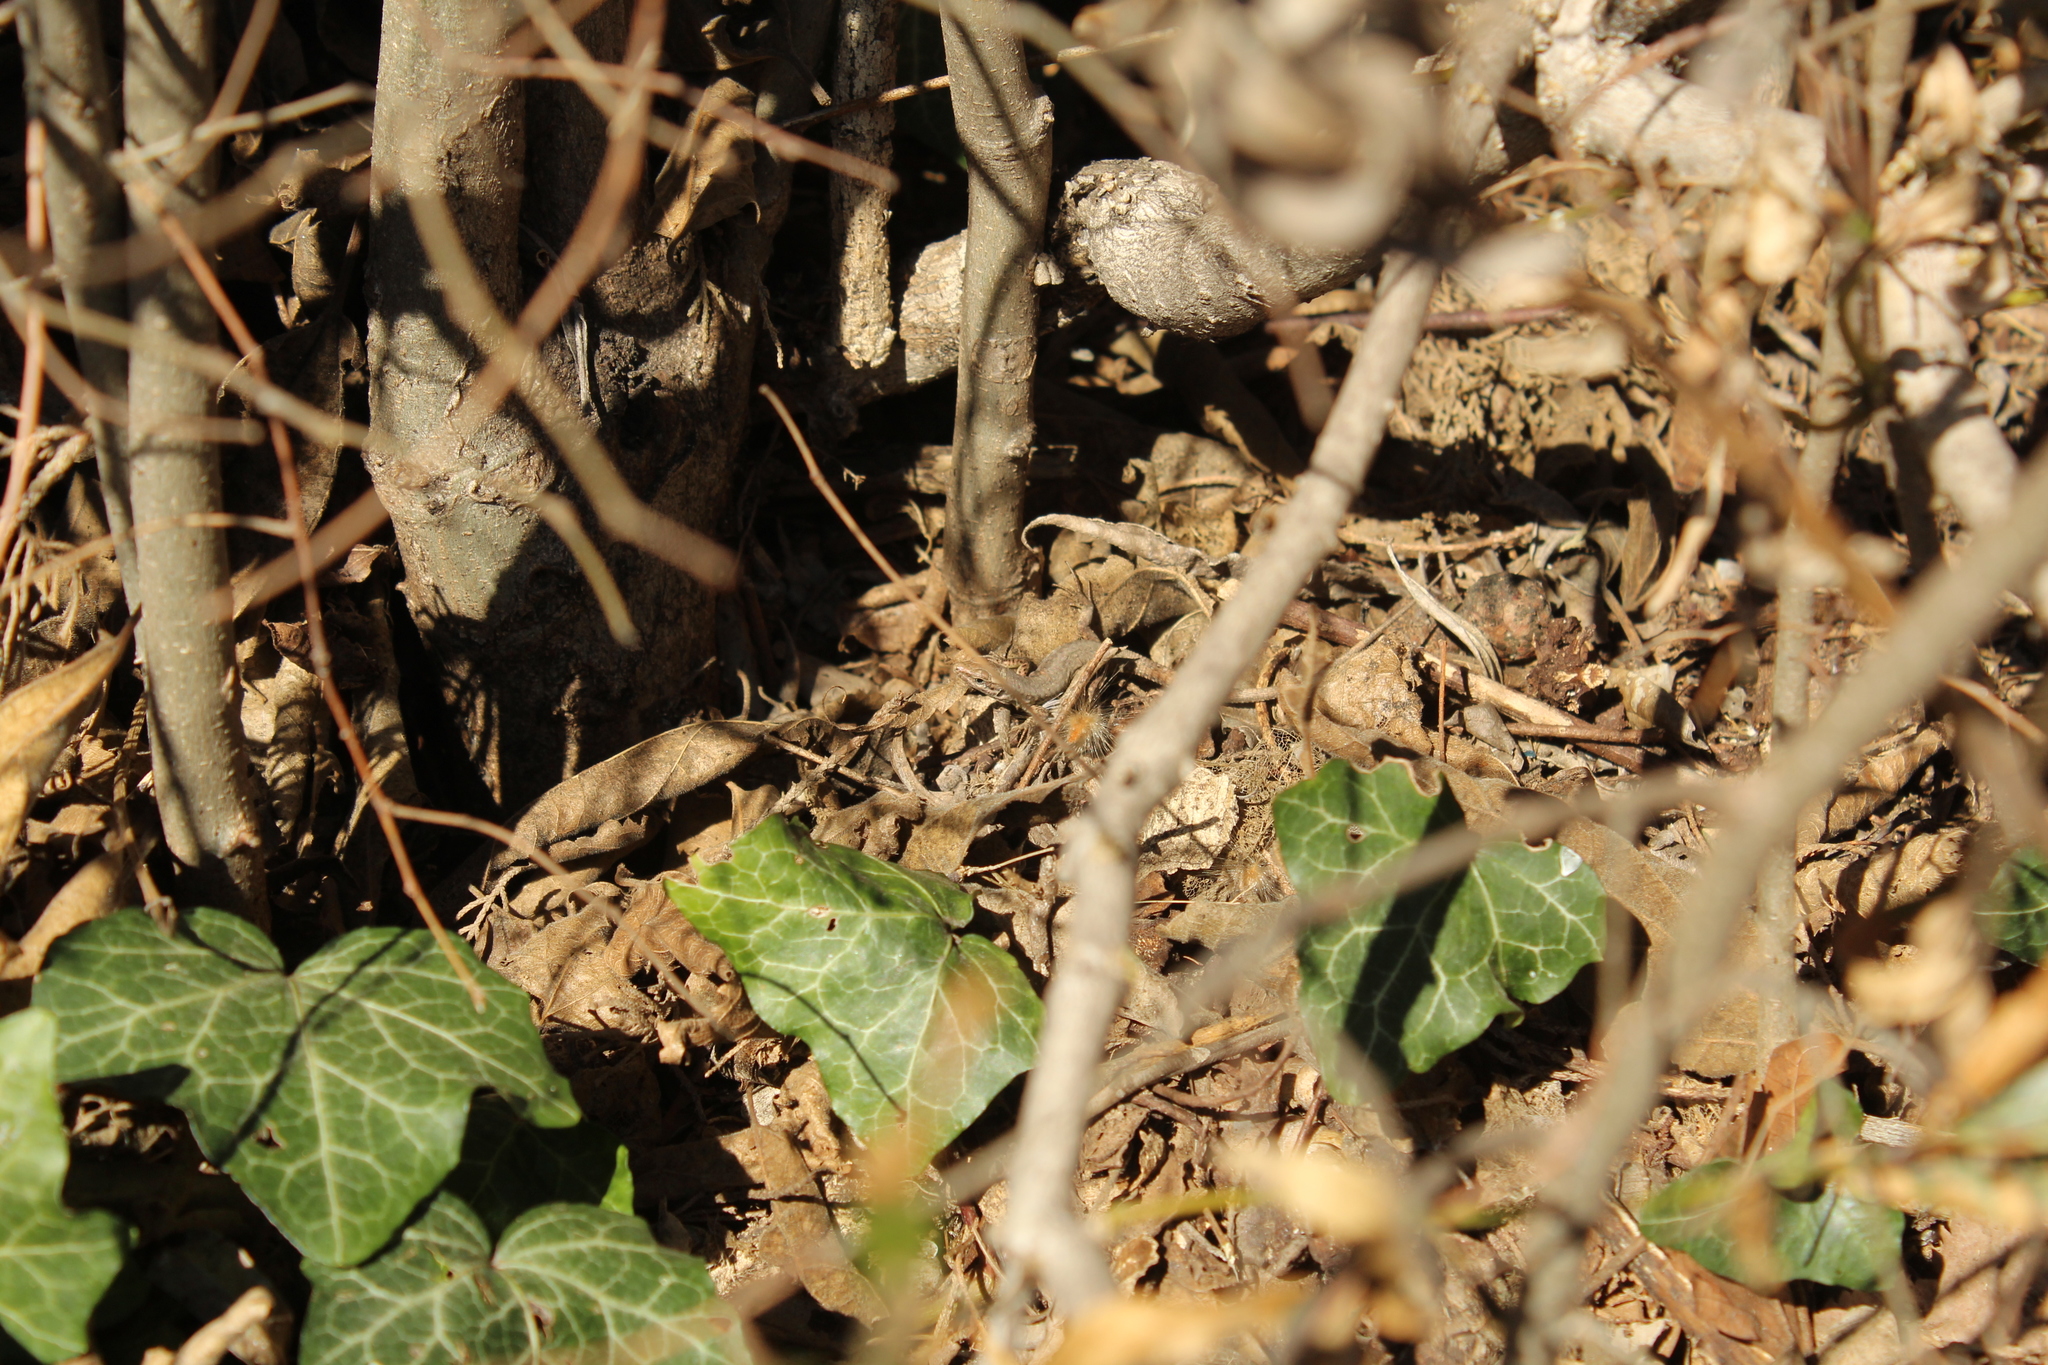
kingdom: Animalia
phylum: Chordata
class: Squamata
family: Lacertidae
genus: Podarcis
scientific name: Podarcis muralis
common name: Common wall lizard
